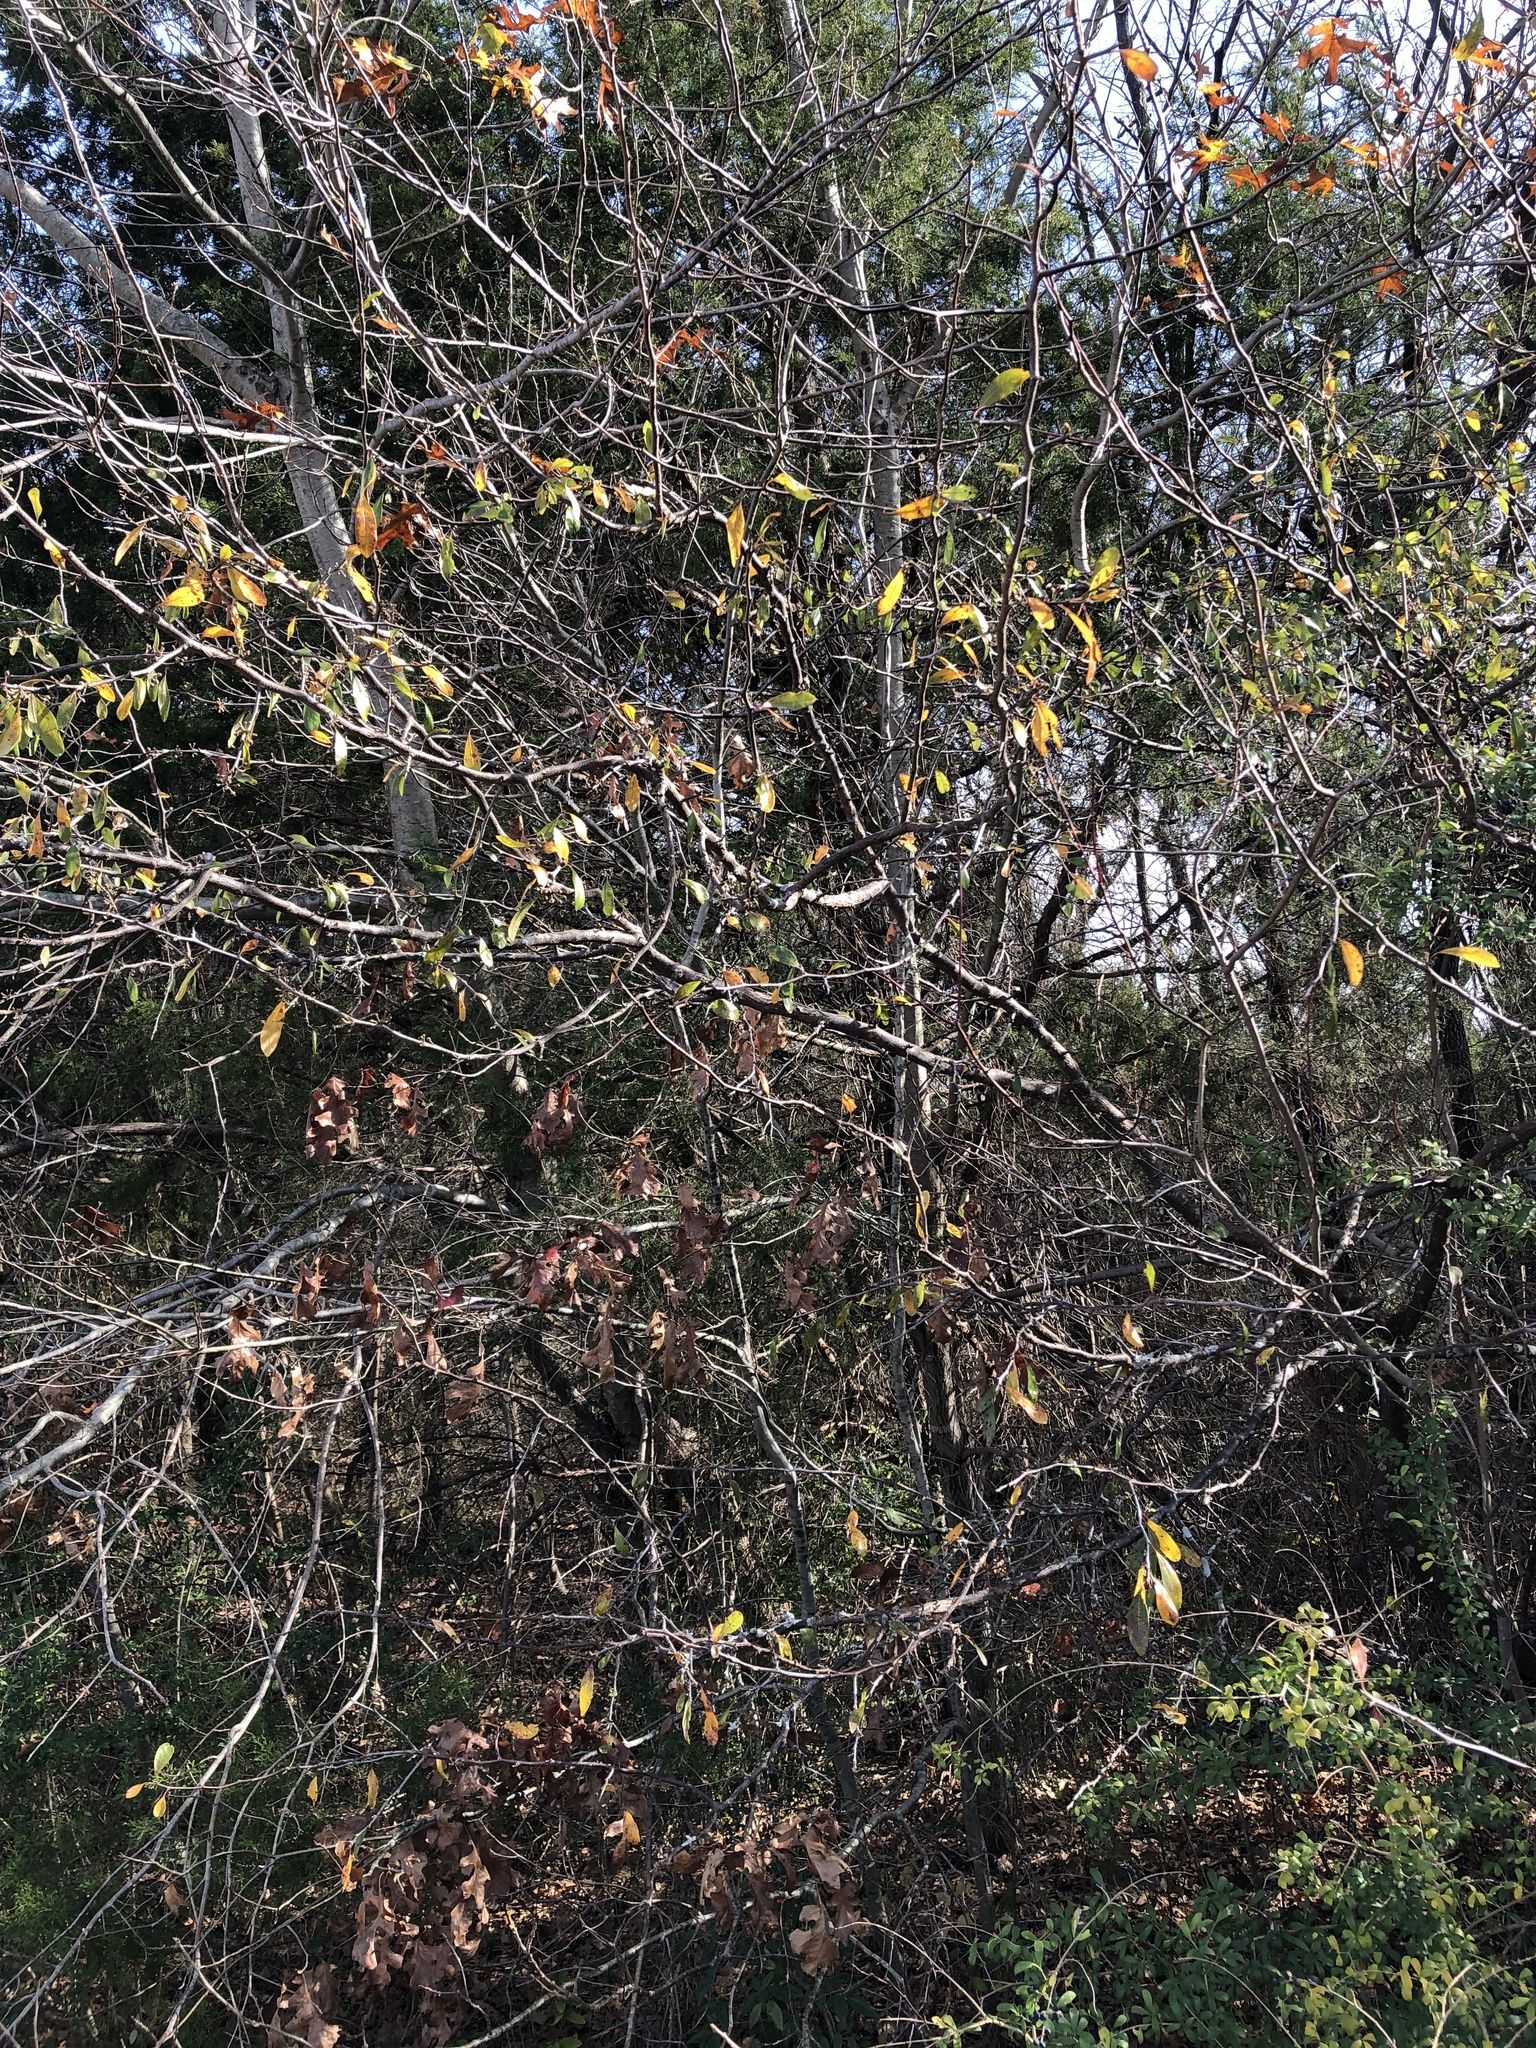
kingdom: Plantae
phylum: Tracheophyta
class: Magnoliopsida
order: Ericales
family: Sapotaceae
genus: Sideroxylon
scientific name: Sideroxylon lanuginosum
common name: Chittamwood
